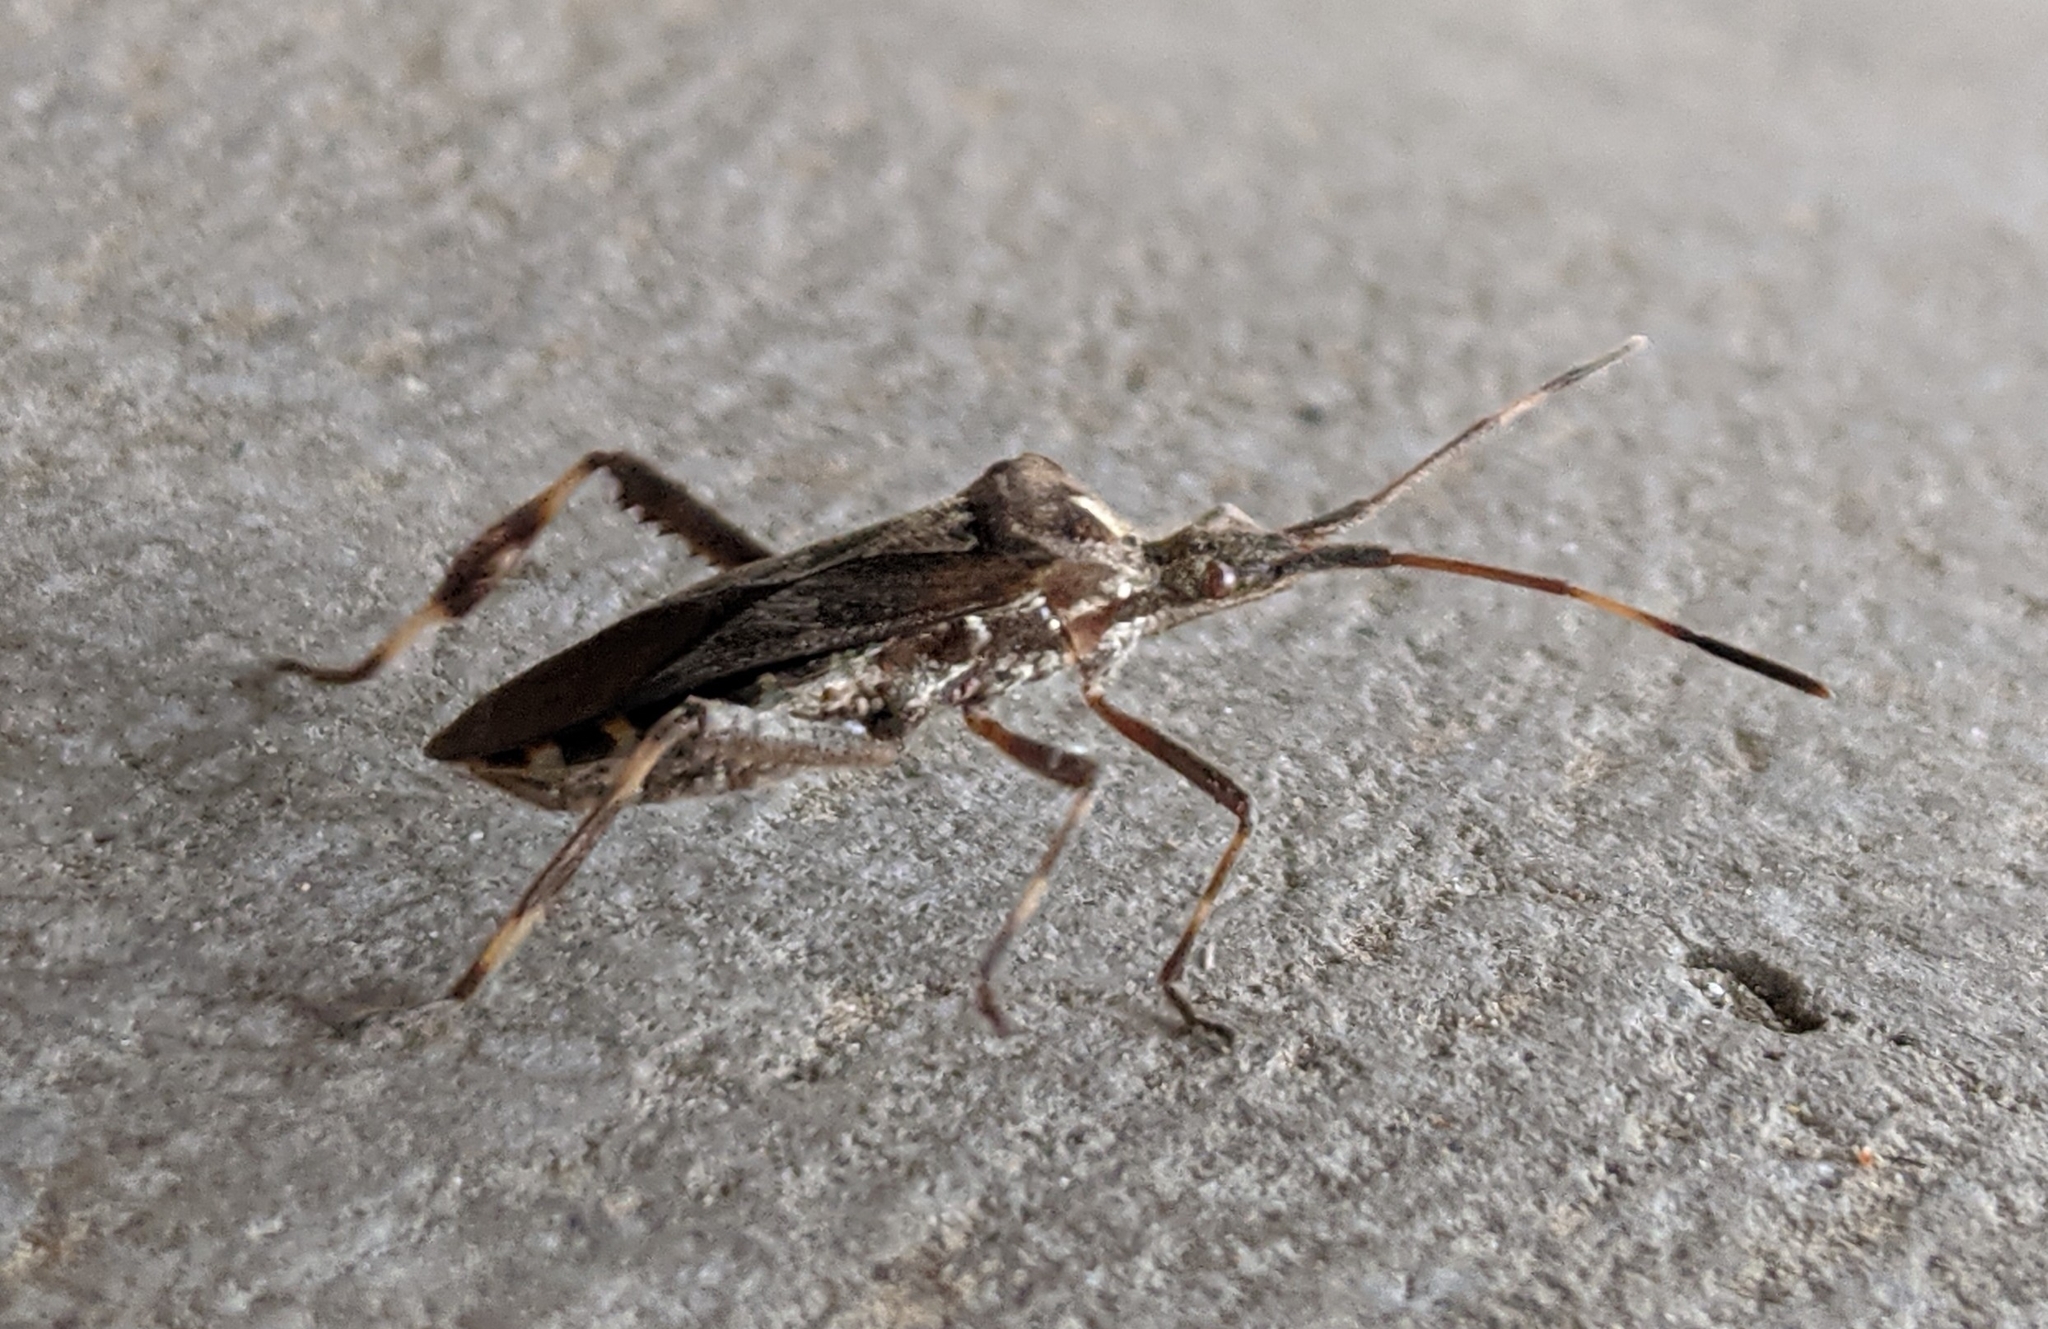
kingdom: Animalia
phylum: Arthropoda
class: Insecta
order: Hemiptera
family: Coreidae
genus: Leptoglossus
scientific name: Leptoglossus occidentalis
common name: Western conifer-seed bug
